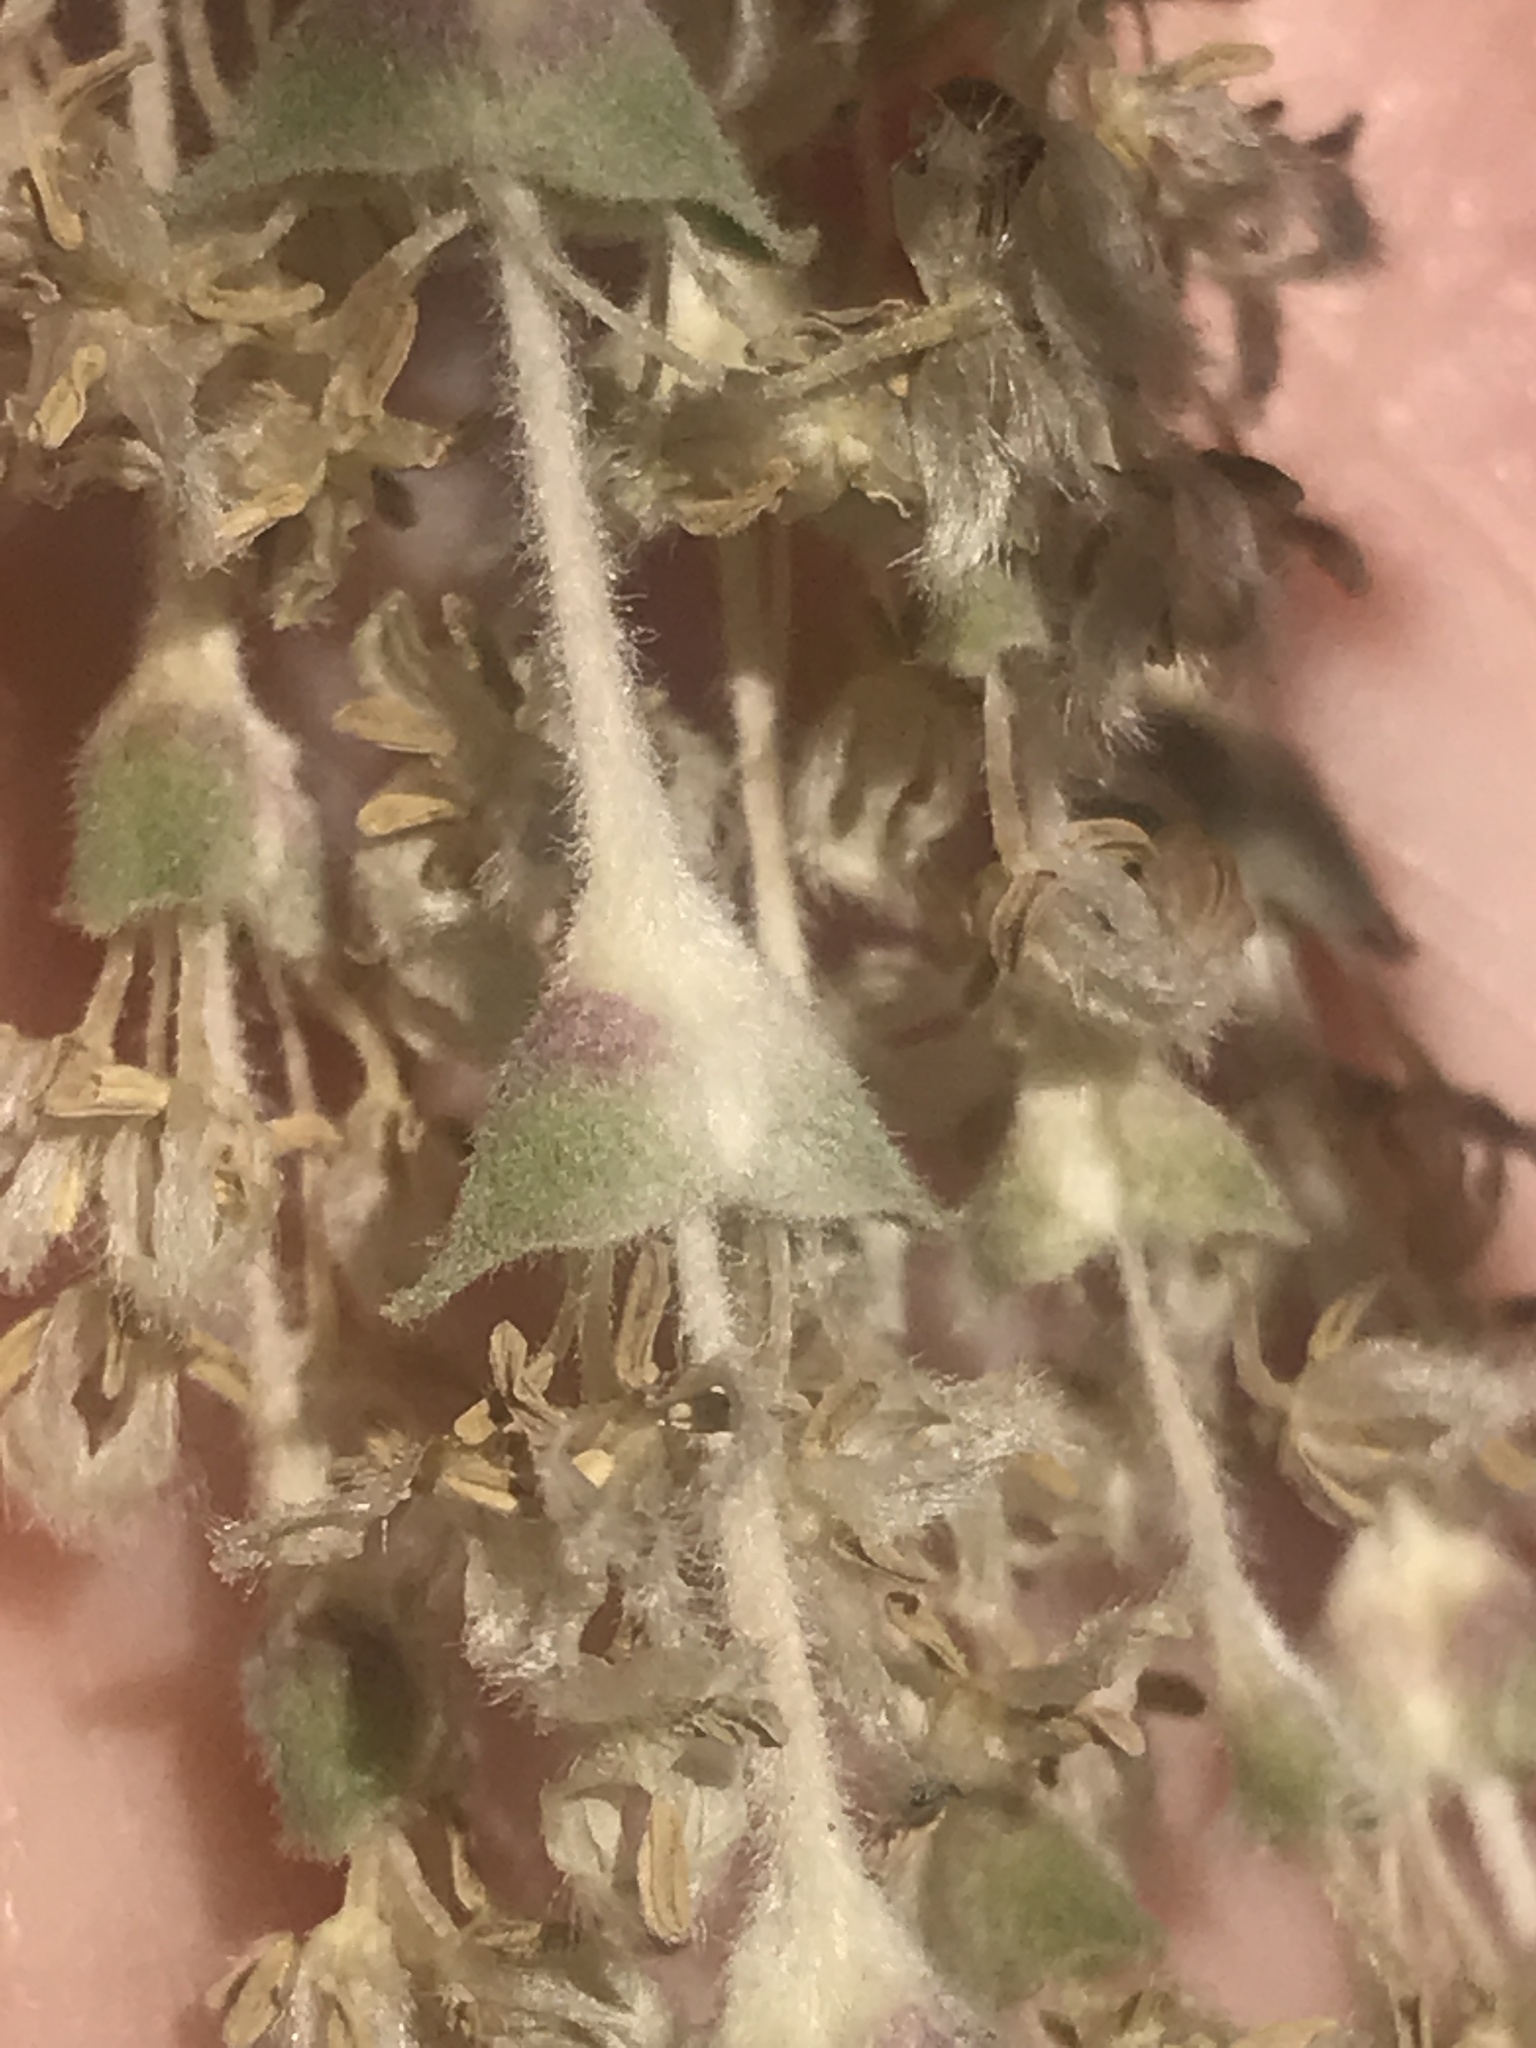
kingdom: Plantae
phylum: Tracheophyta
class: Magnoliopsida
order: Garryales
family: Garryaceae
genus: Garrya
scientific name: Garrya elliptica
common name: Silk-tassel
